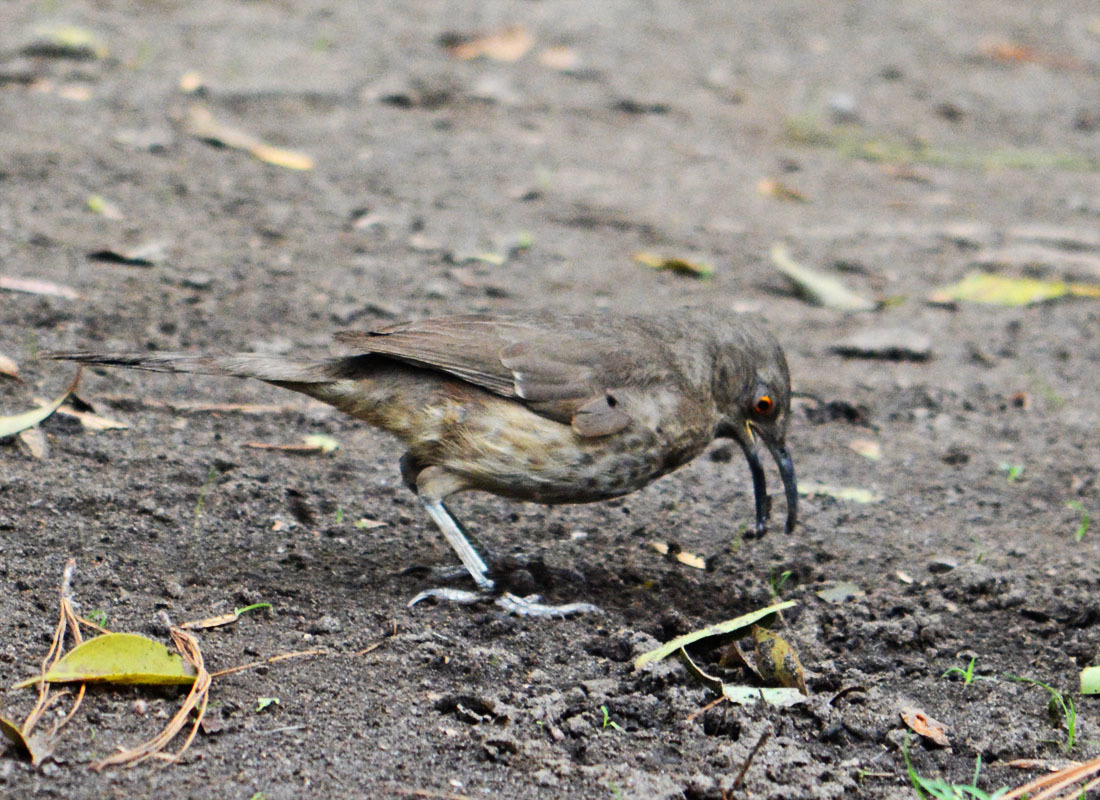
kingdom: Animalia
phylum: Chordata
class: Aves
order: Passeriformes
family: Mimidae
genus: Toxostoma
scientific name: Toxostoma curvirostre
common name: Curve-billed thrasher
